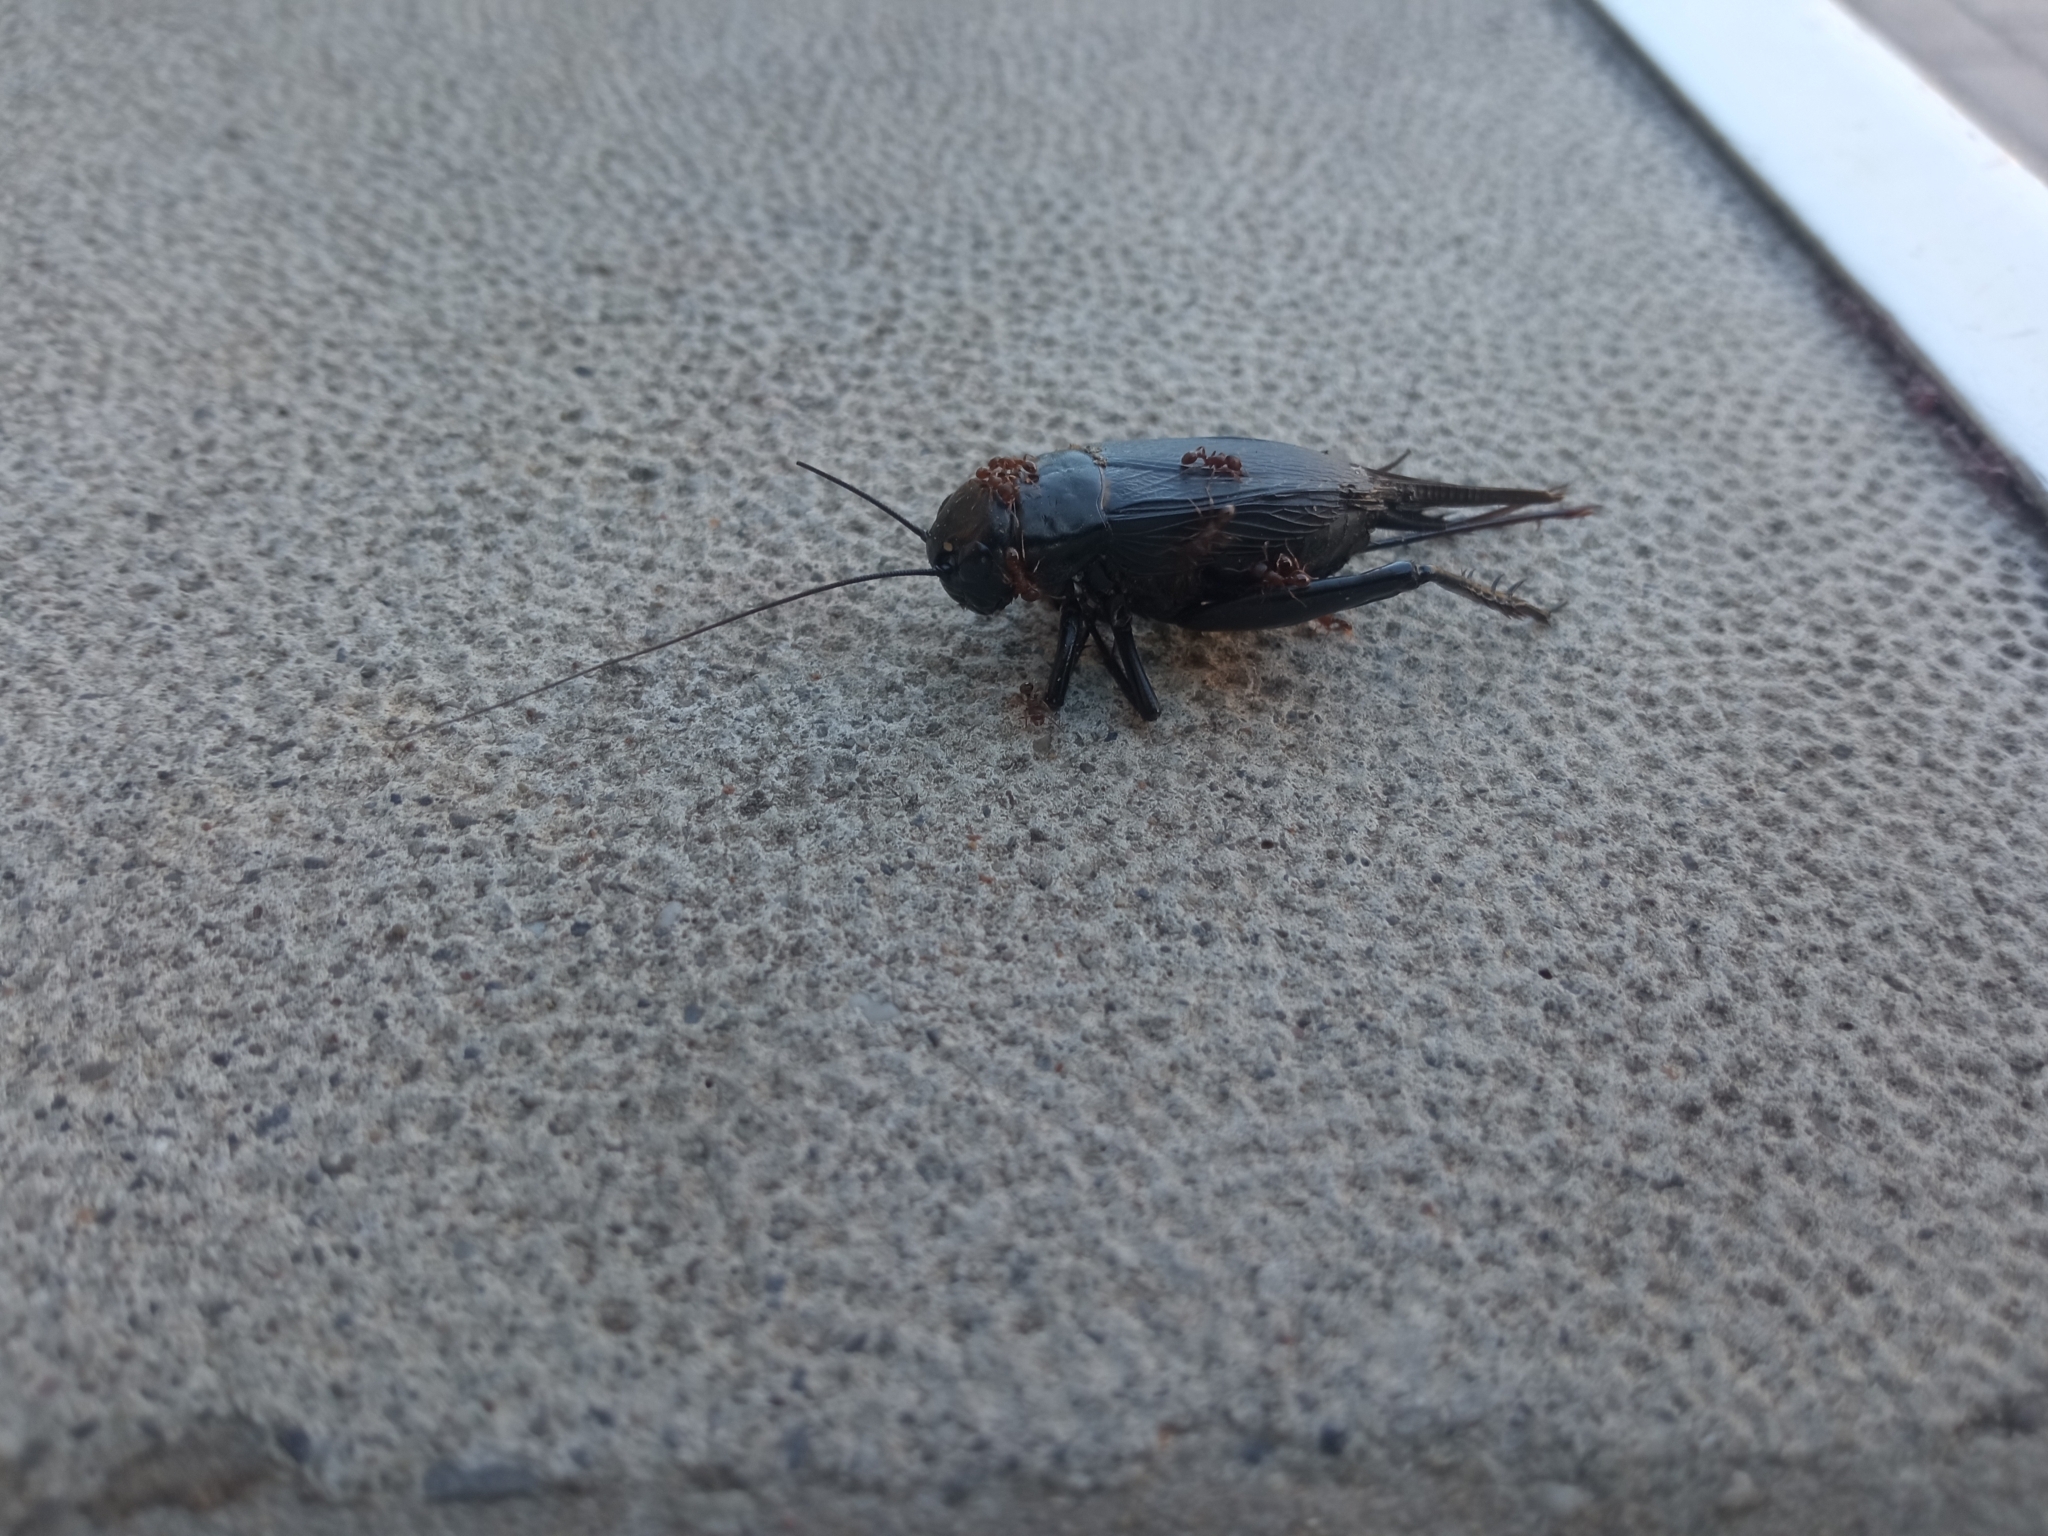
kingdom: Animalia
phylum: Arthropoda
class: Insecta
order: Orthoptera
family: Gryllidae
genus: Gryllus
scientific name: Gryllus bimaculatus
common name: Two-spotted cricket
